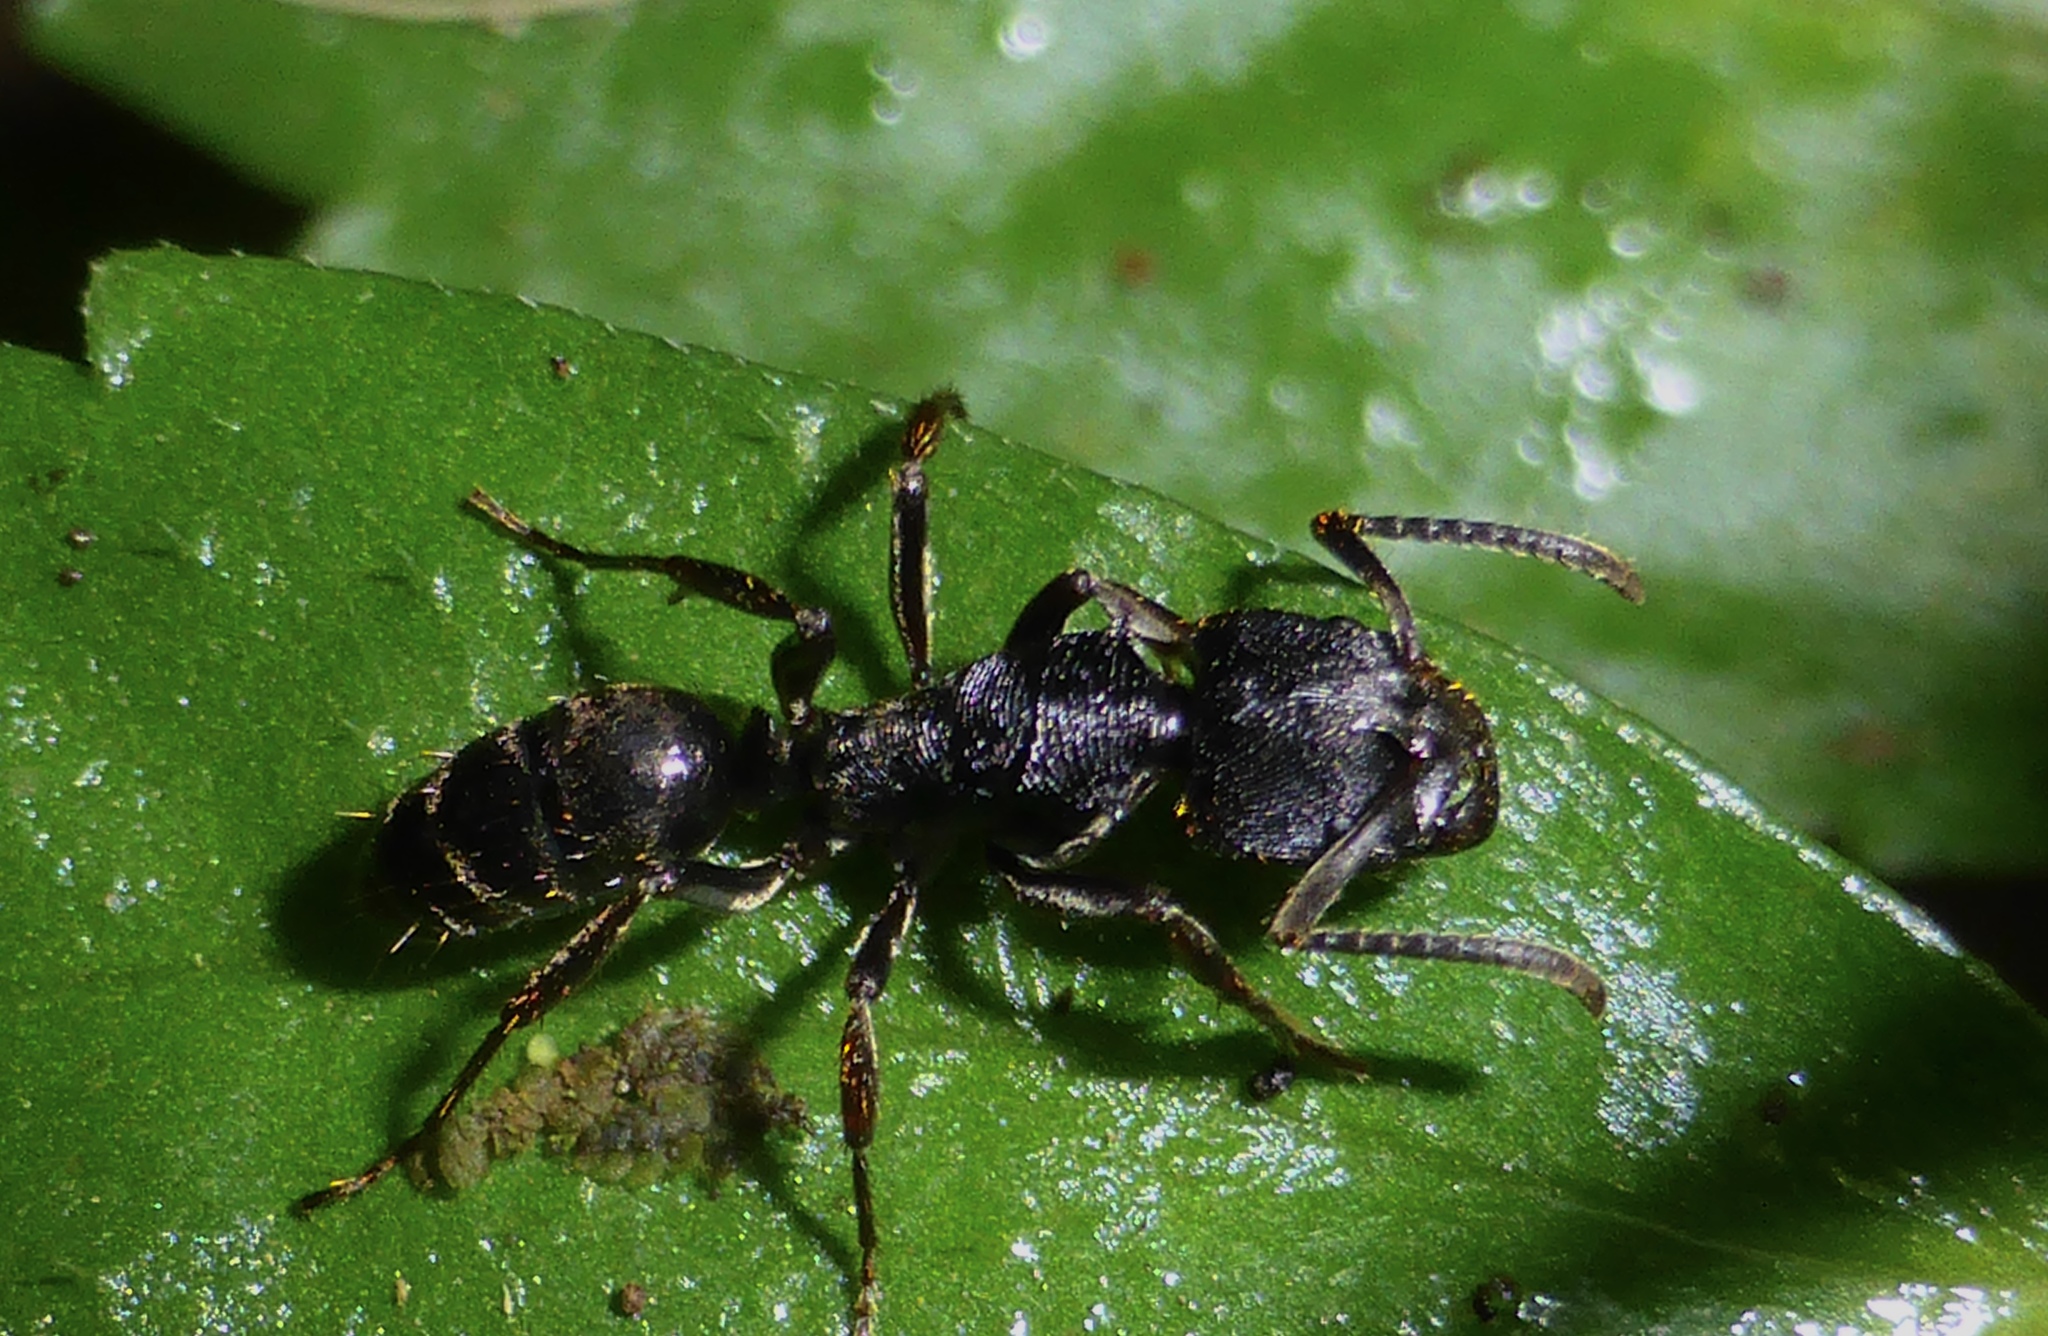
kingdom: Animalia
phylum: Arthropoda
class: Insecta
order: Hymenoptera
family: Formicidae
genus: Odontoponera
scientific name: Odontoponera denticulata
